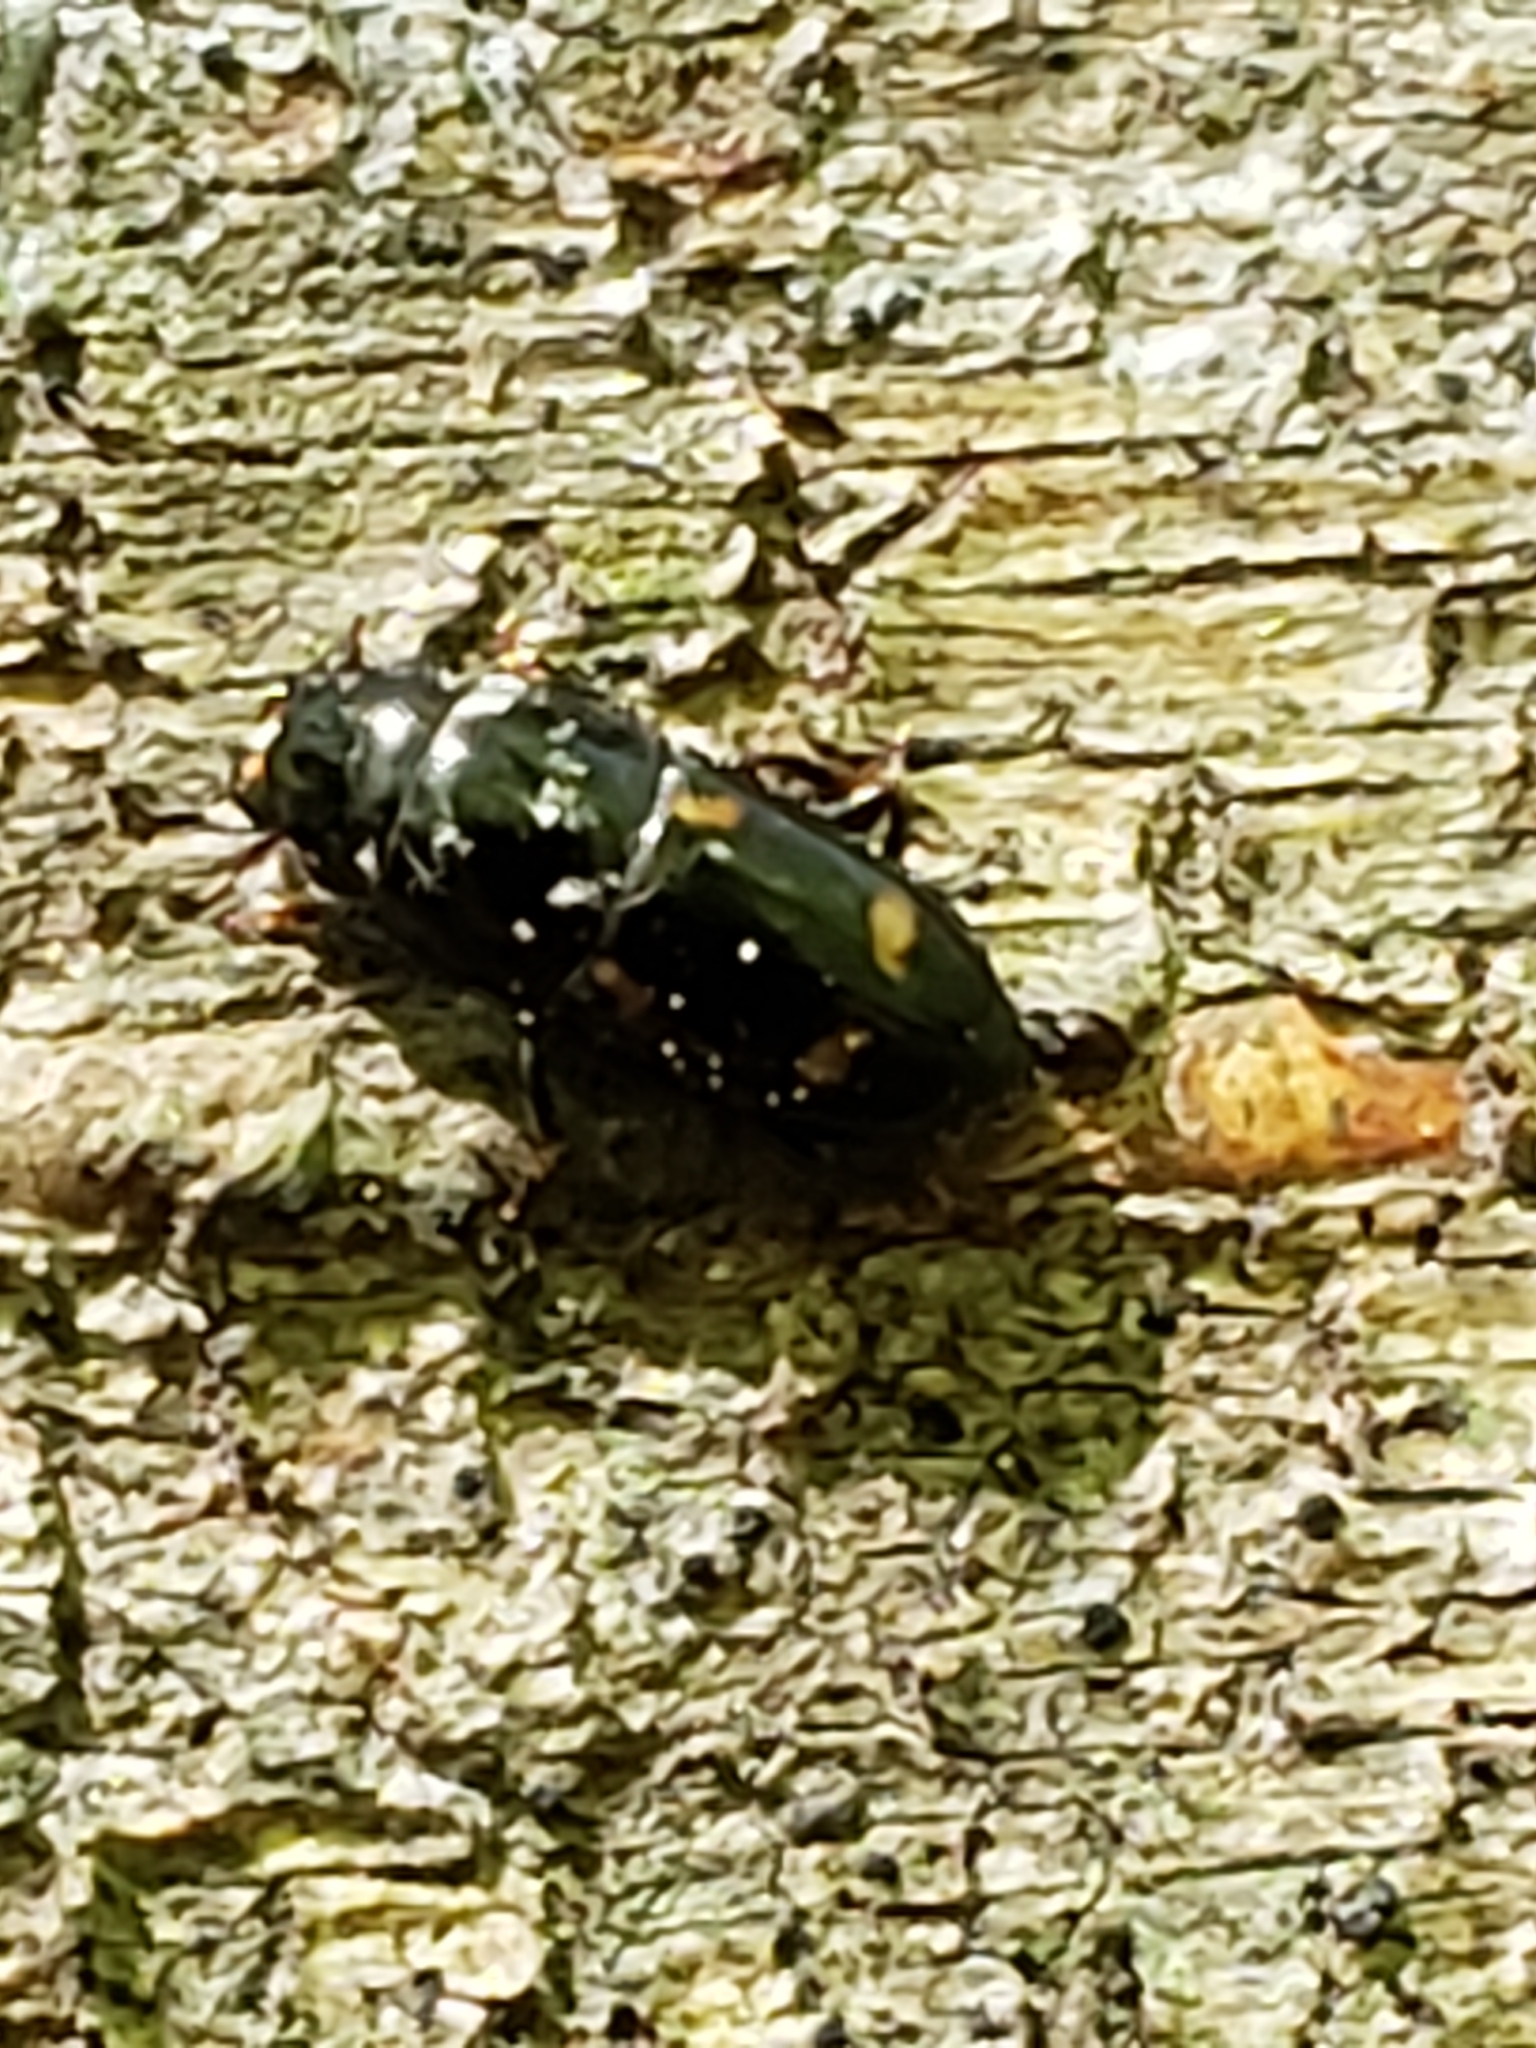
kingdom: Animalia
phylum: Arthropoda
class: Insecta
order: Coleoptera
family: Nitidulidae
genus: Glischrochilus
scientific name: Glischrochilus quadrisignatus
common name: Picnic beetle
